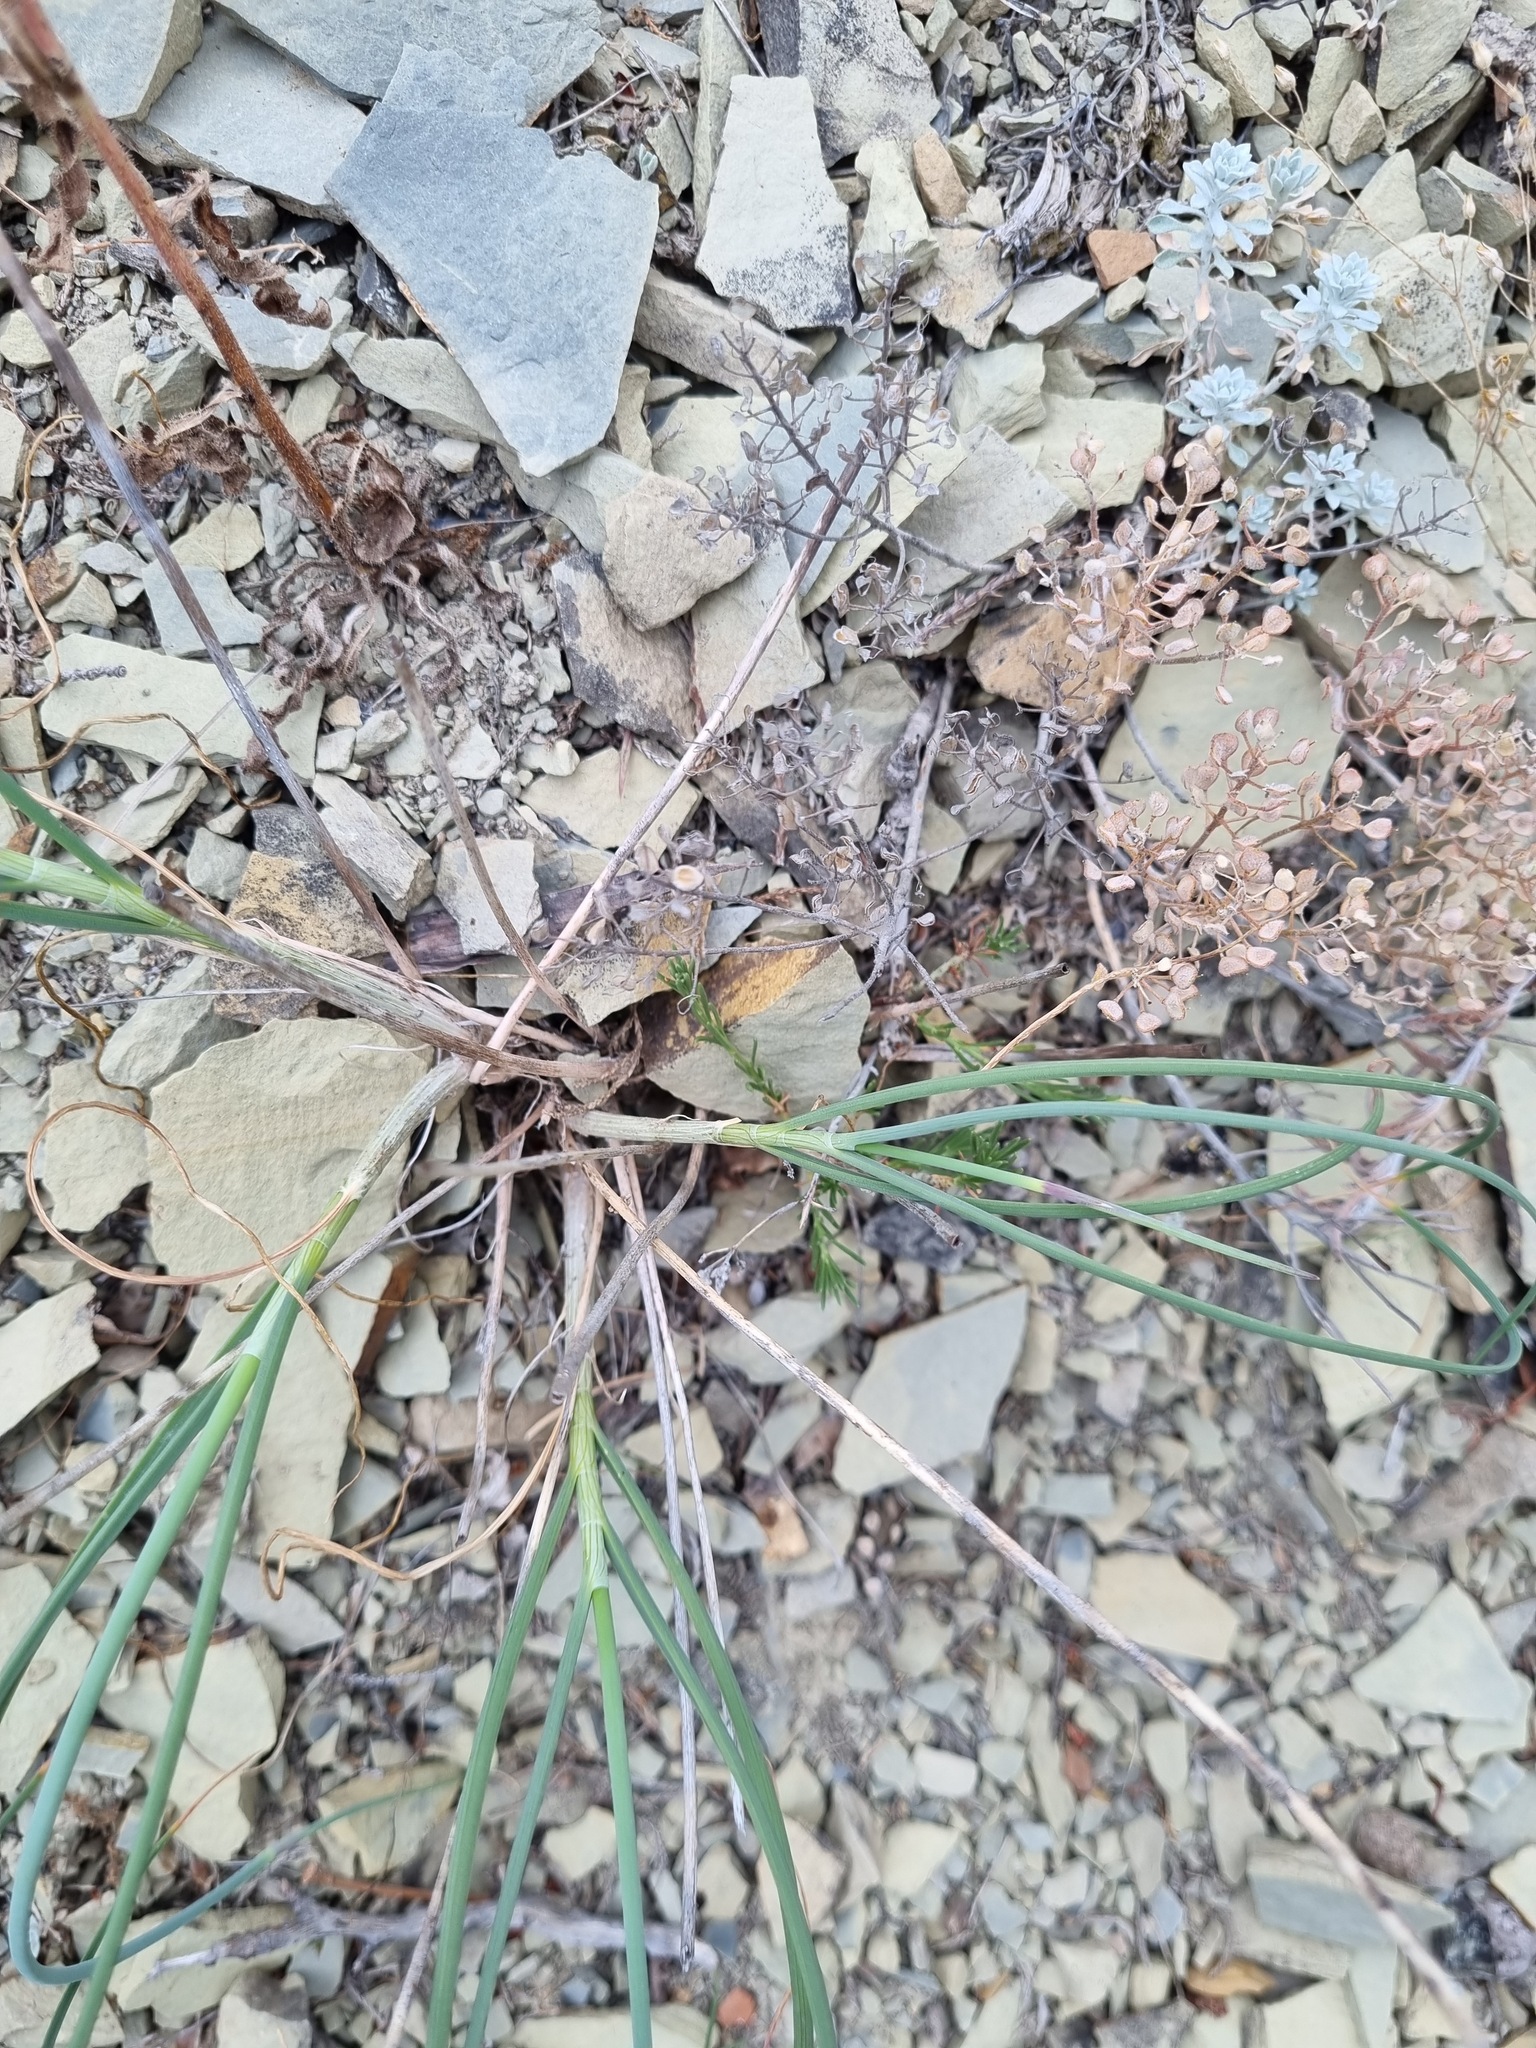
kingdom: Plantae
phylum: Tracheophyta
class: Liliopsida
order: Asparagales
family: Amaryllidaceae
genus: Allium
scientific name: Allium psebaicum
